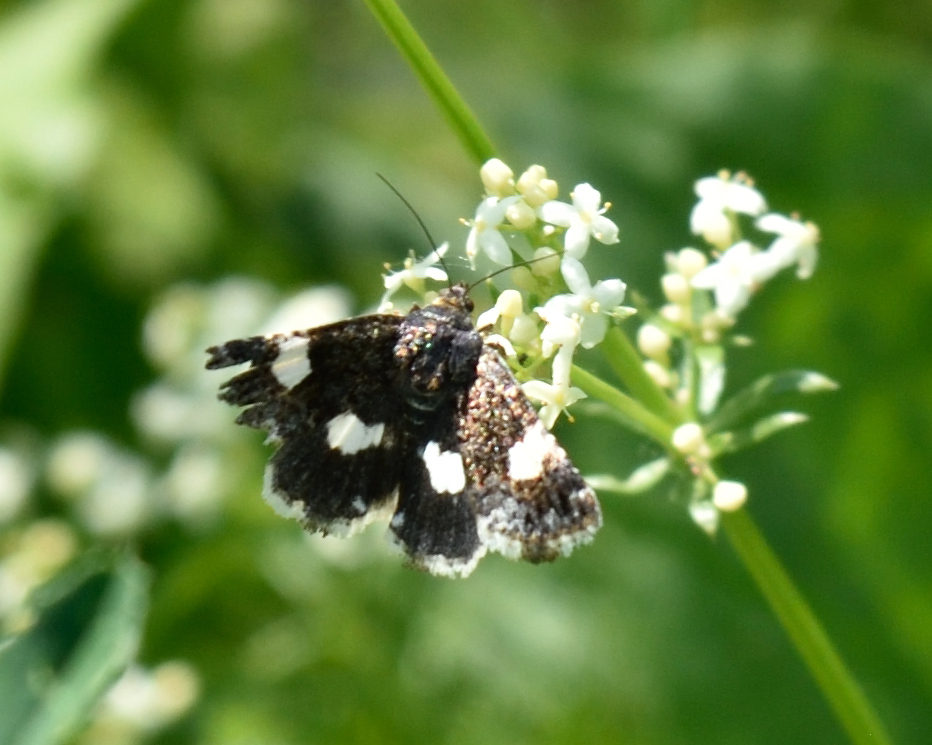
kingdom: Animalia
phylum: Arthropoda
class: Insecta
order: Lepidoptera
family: Erebidae
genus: Tyta
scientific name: Tyta luctuosa
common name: Four-spotted
